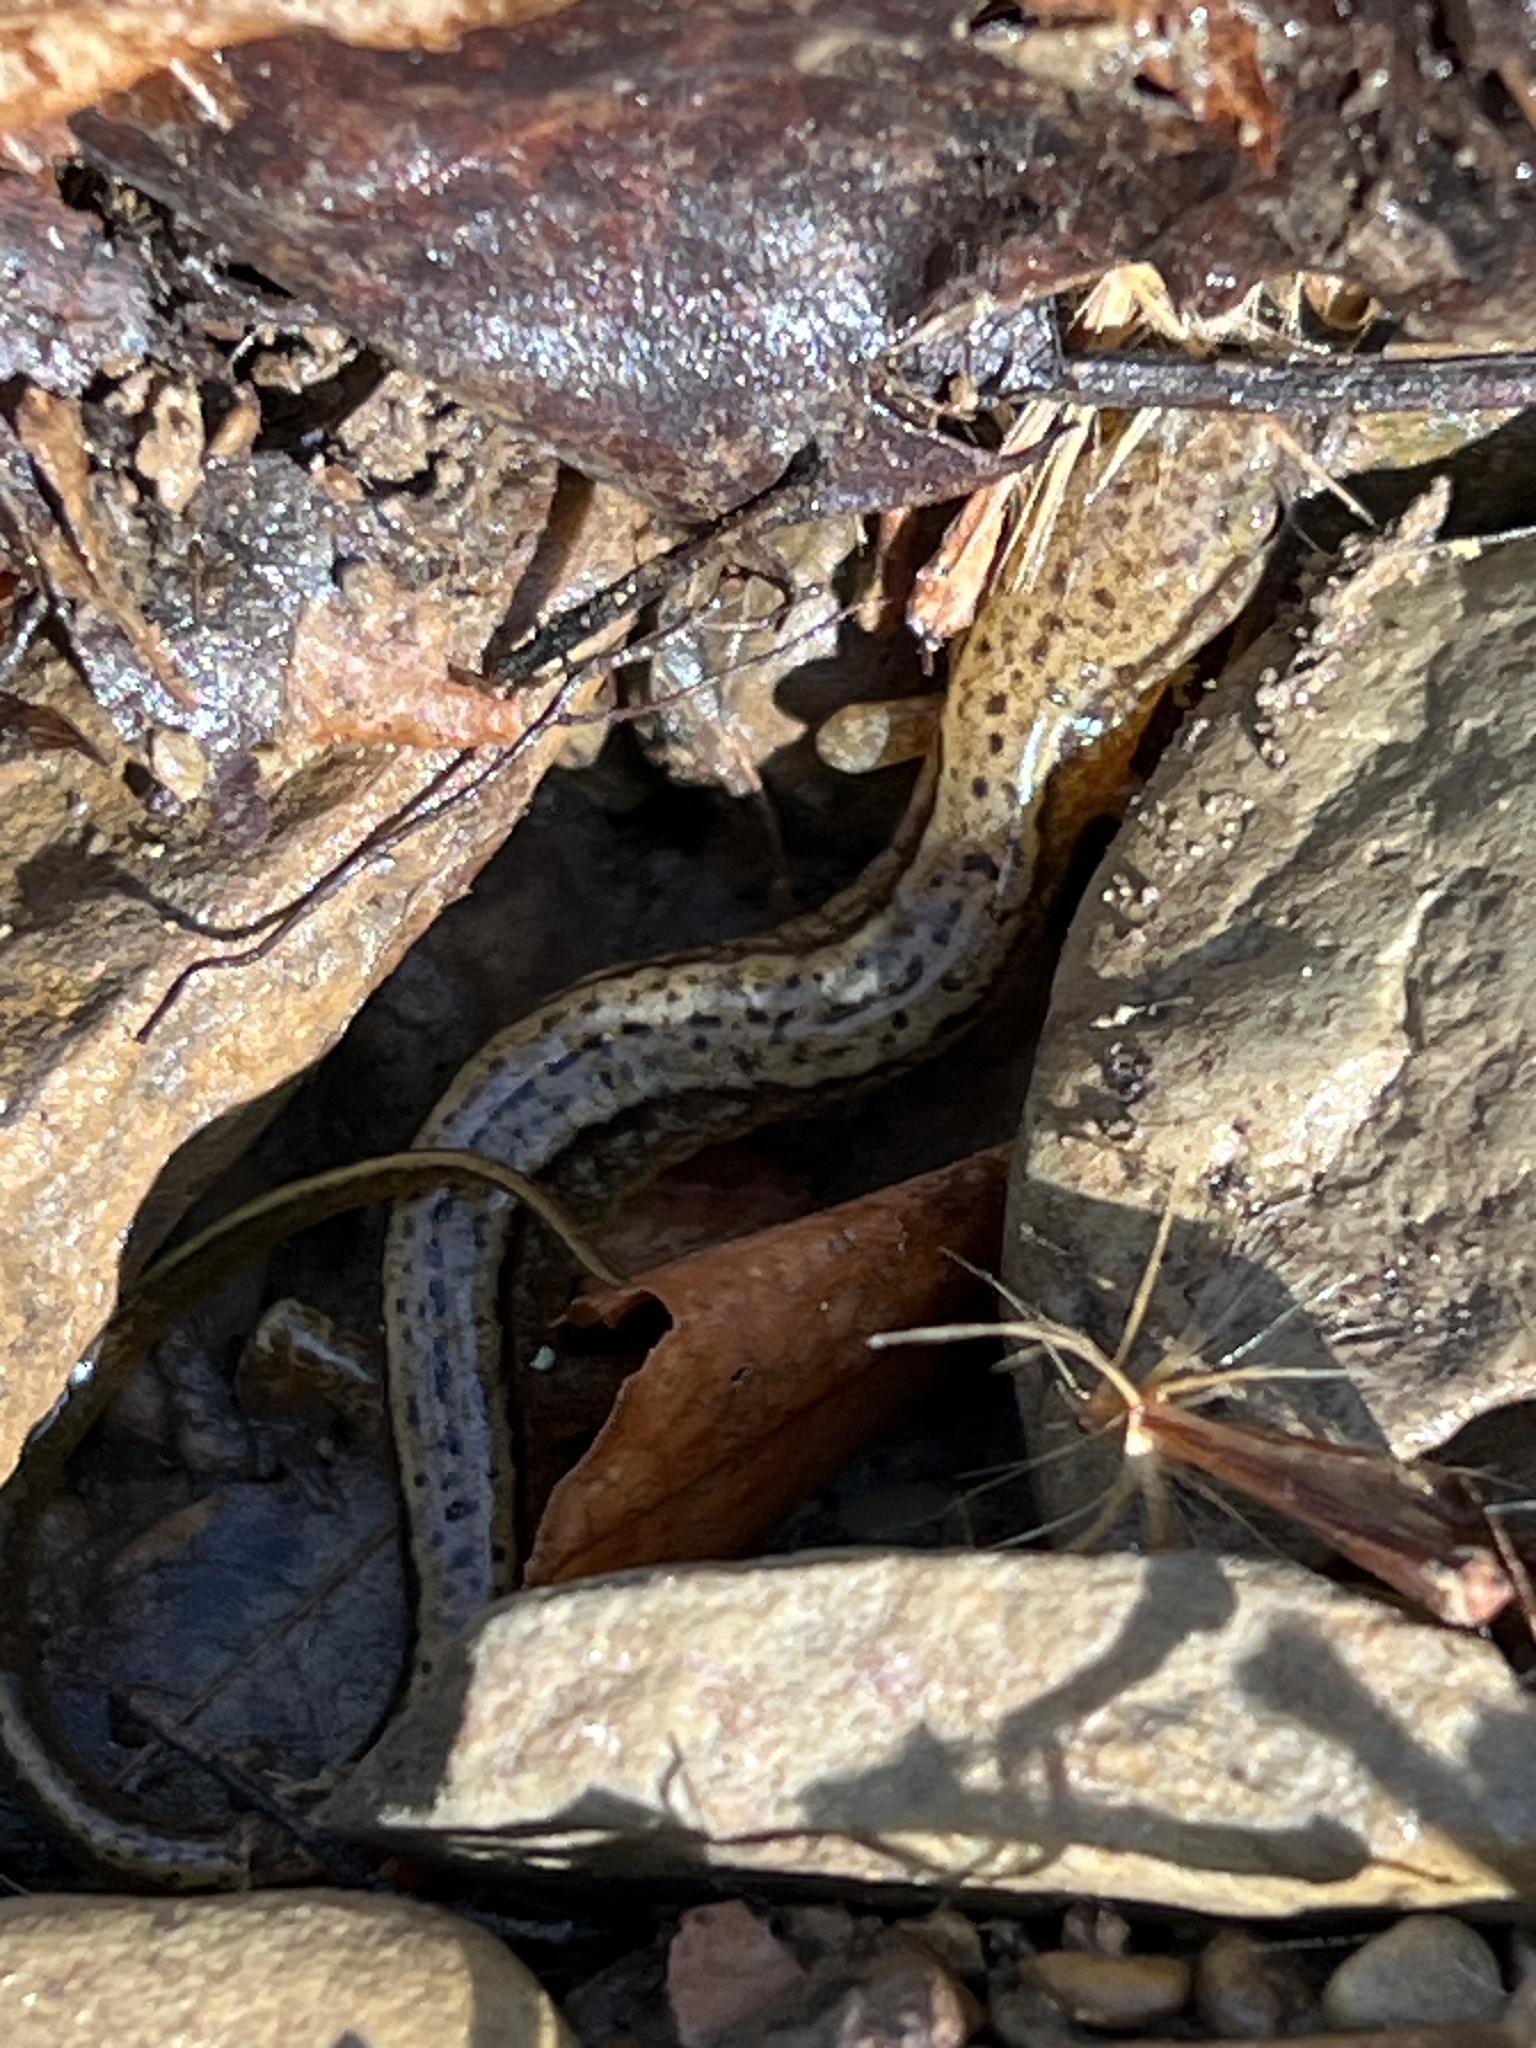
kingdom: Animalia
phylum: Chordata
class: Amphibia
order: Caudata
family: Plethodontidae
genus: Eurycea
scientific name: Eurycea cirrigera
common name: Southern two-lined salamander
